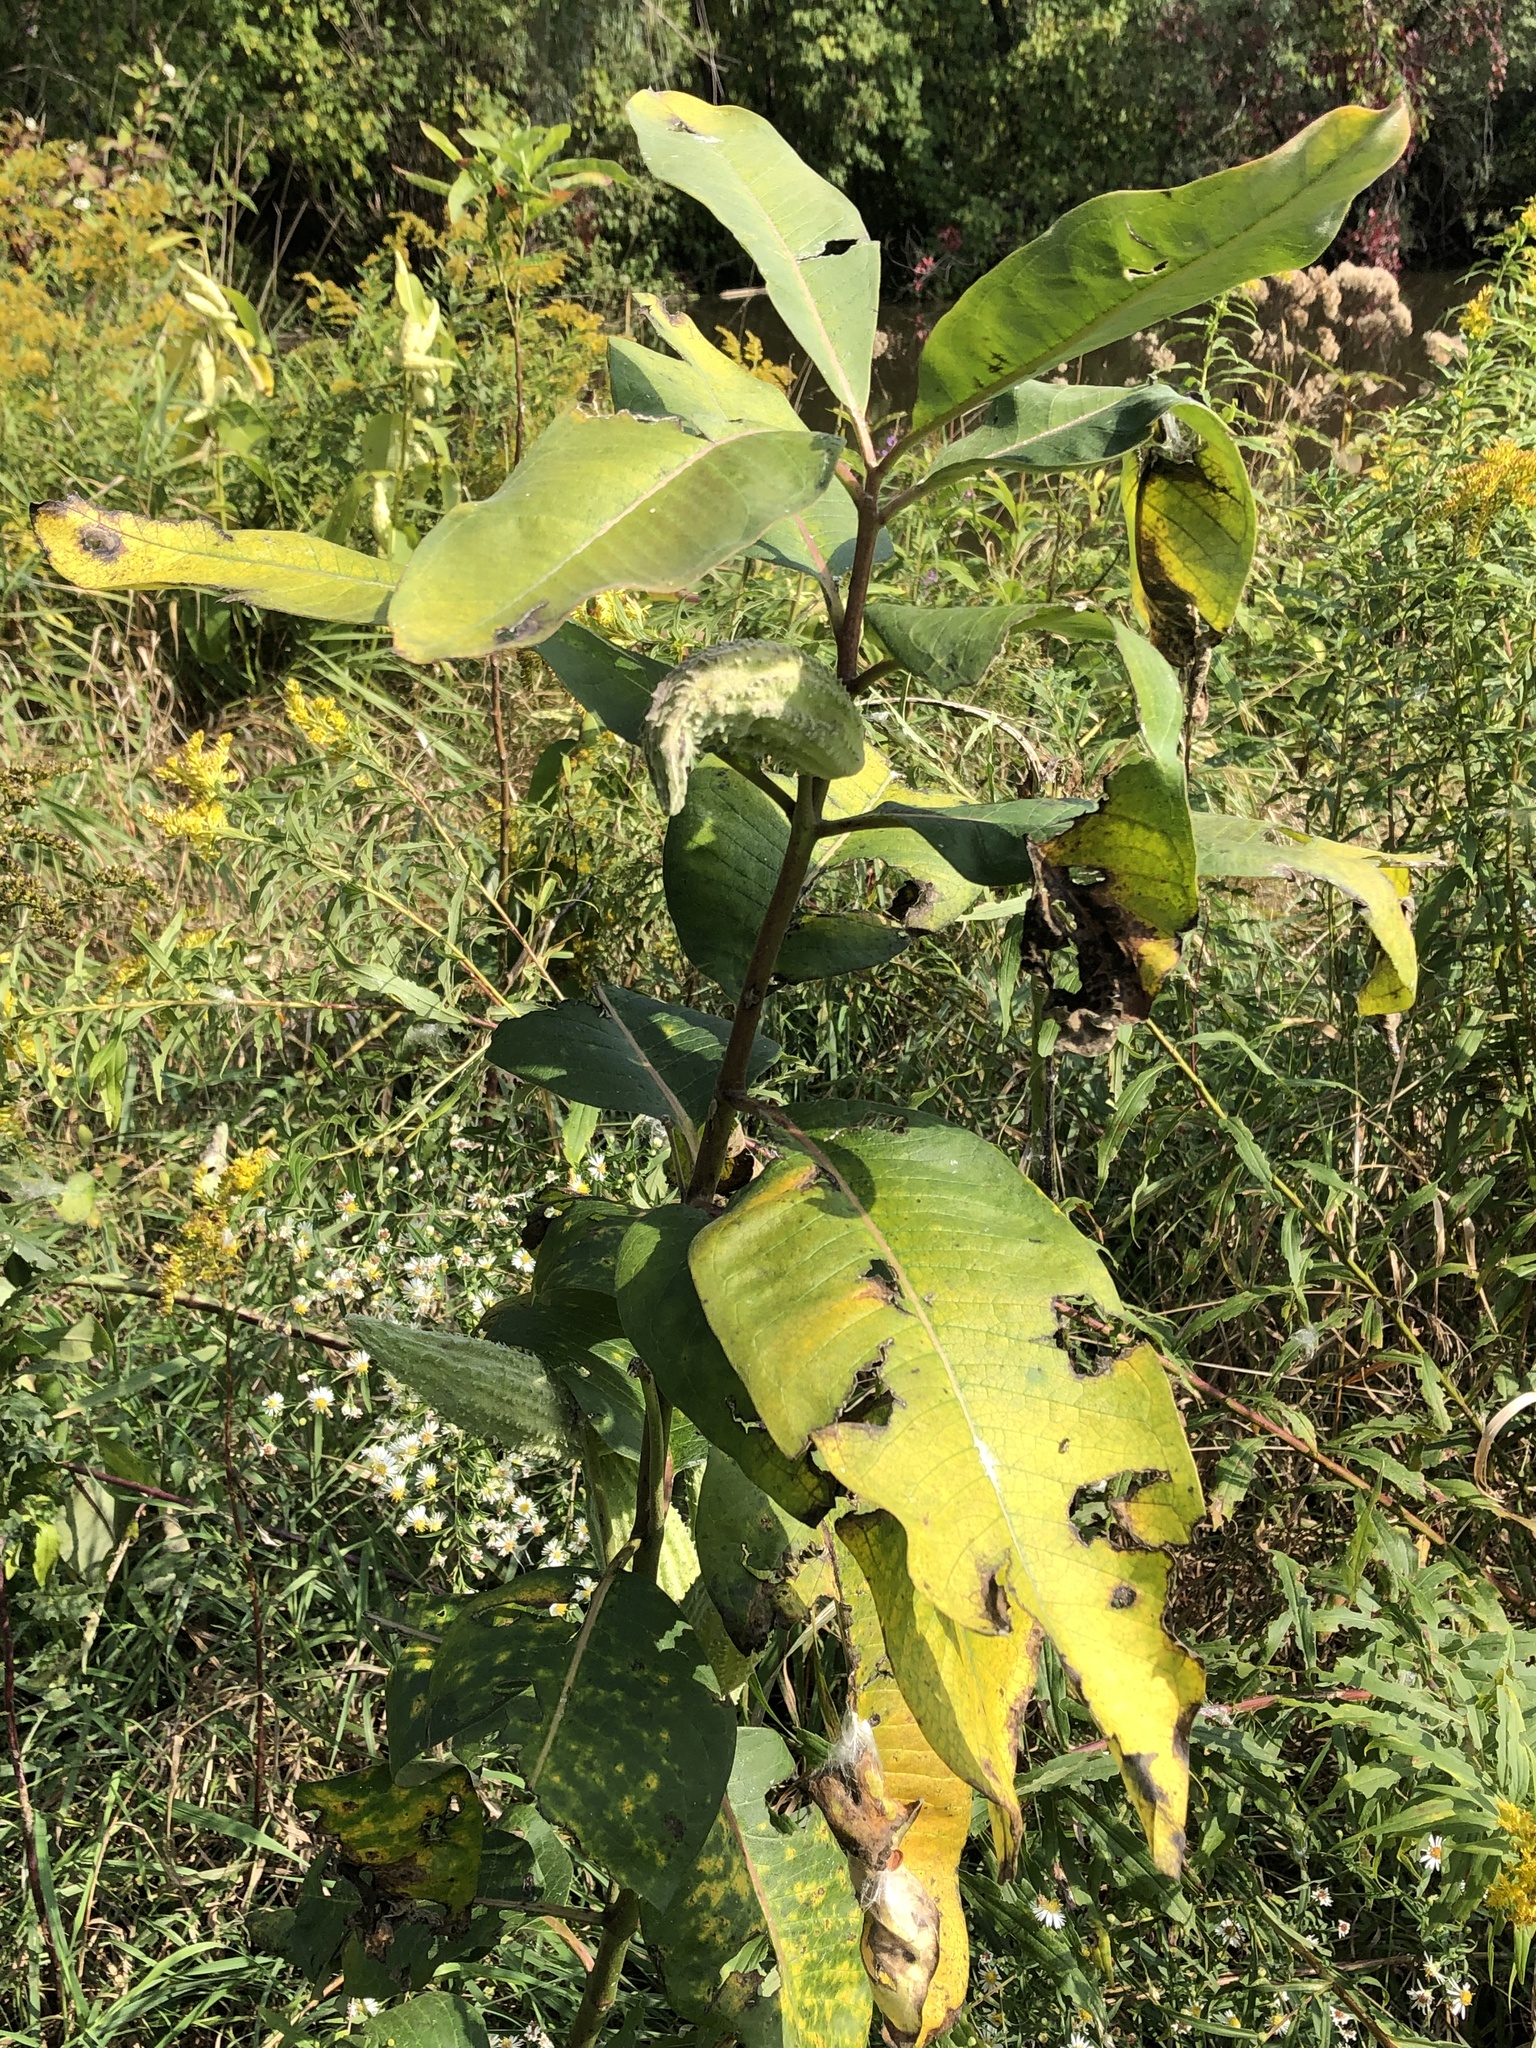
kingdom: Plantae
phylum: Tracheophyta
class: Magnoliopsida
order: Gentianales
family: Apocynaceae
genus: Asclepias
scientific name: Asclepias syriaca
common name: Common milkweed
